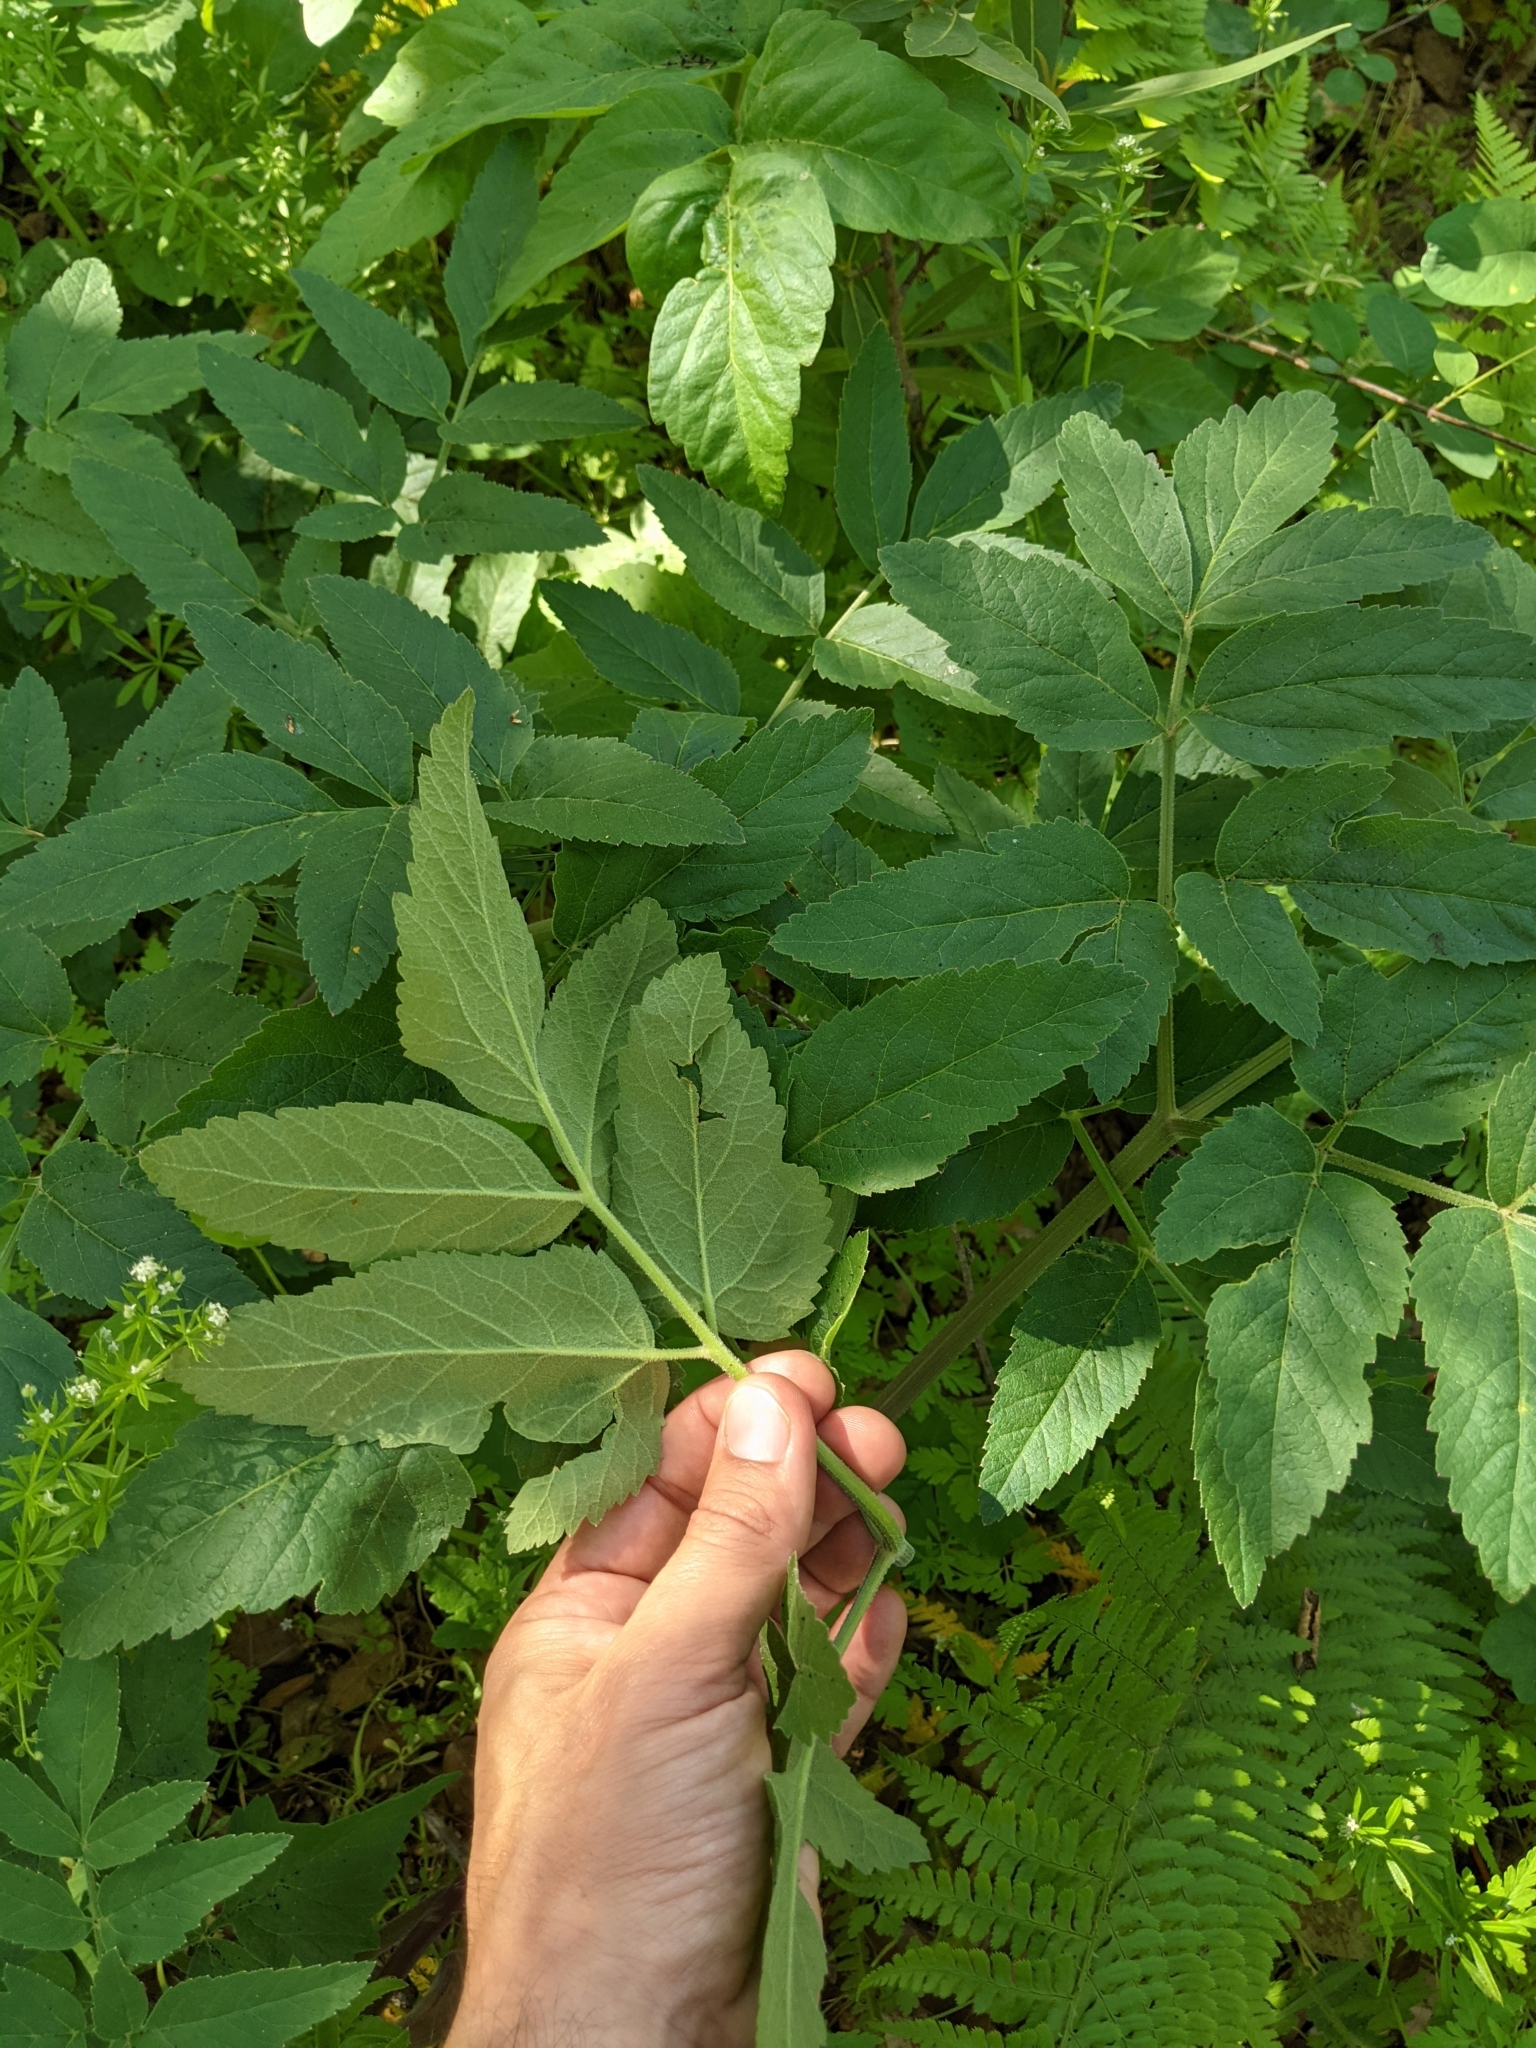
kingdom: Plantae
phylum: Tracheophyta
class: Magnoliopsida
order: Apiales
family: Apiaceae
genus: Angelica
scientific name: Angelica californica
